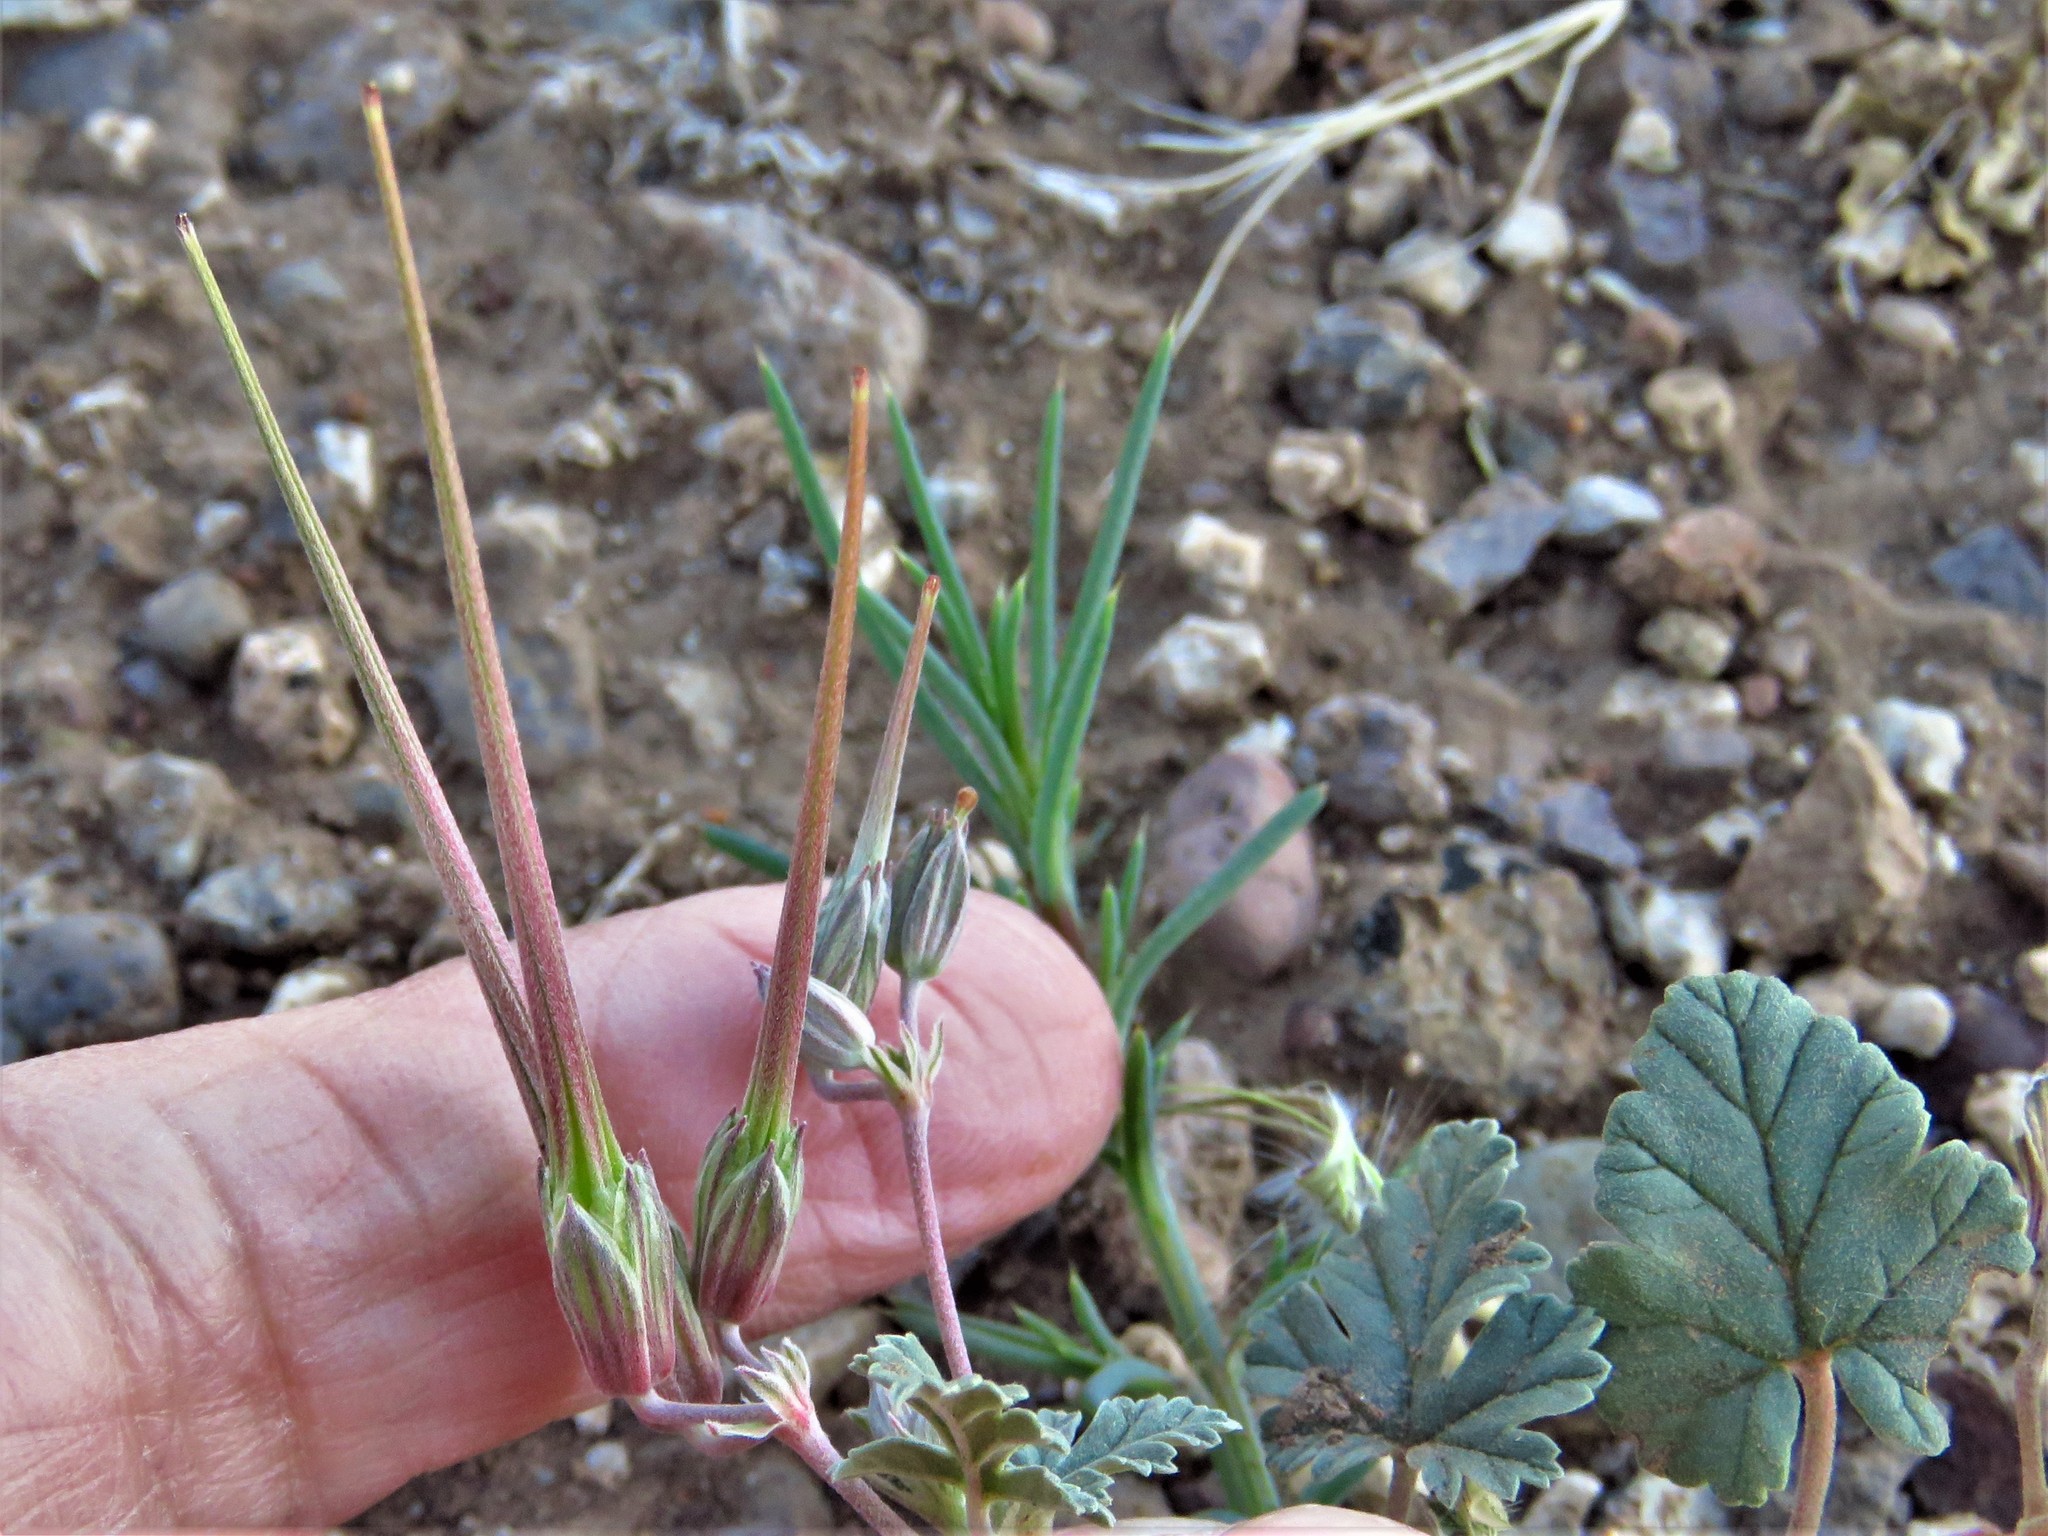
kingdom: Plantae
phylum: Tracheophyta
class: Magnoliopsida
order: Geraniales
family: Geraniaceae
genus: Erodium
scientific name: Erodium texanum
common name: Texas stork's-bill
